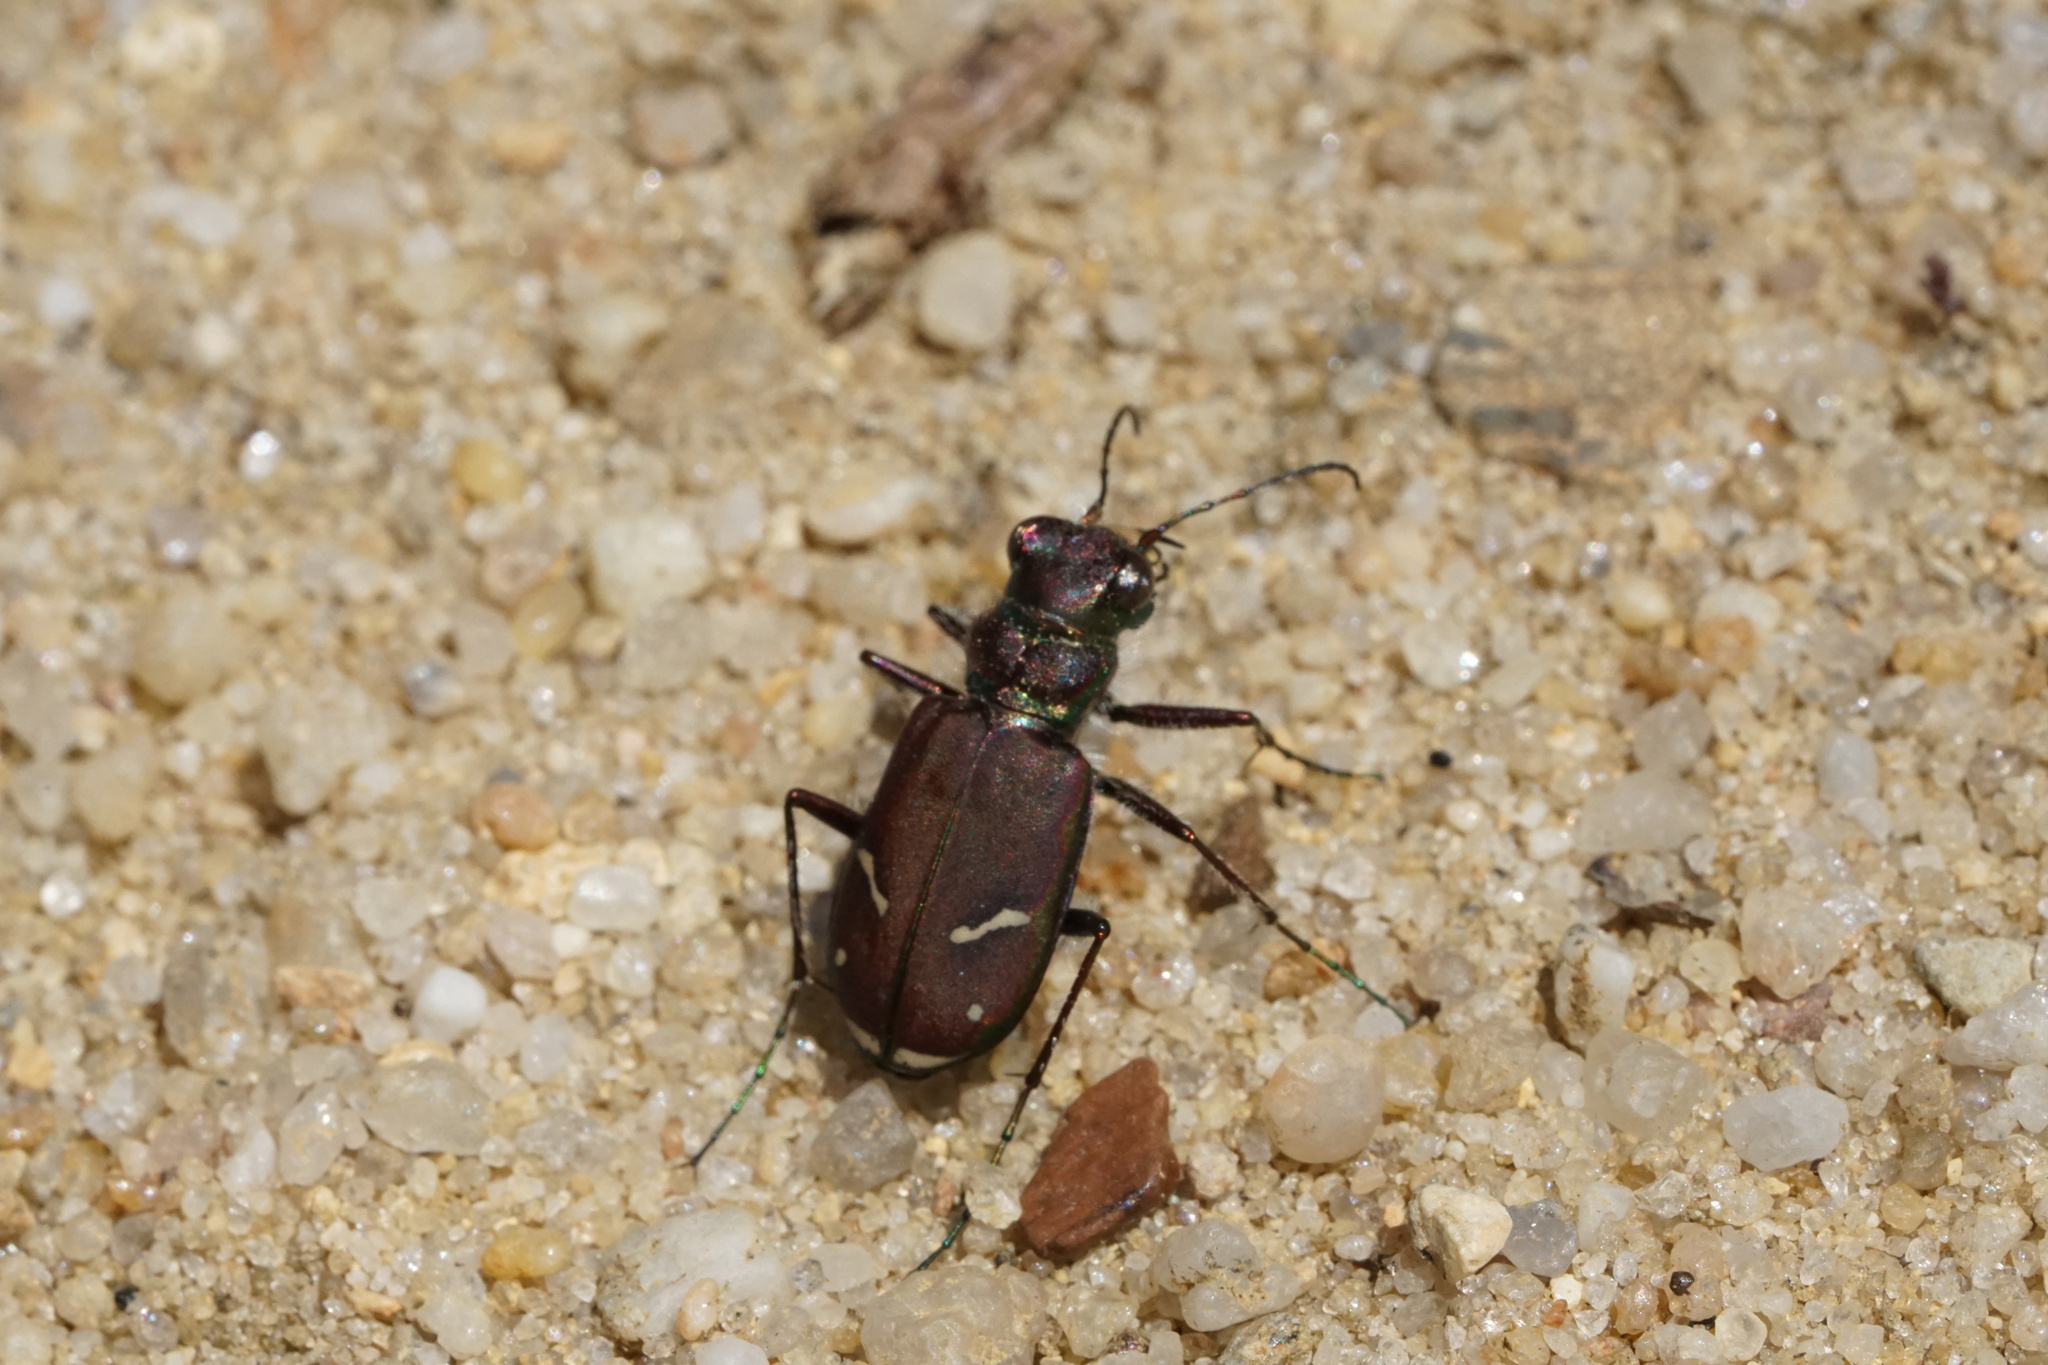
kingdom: Animalia
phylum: Arthropoda
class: Insecta
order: Coleoptera
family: Carabidae
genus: Cicindela
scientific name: Cicindela purpurea
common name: Cow path tiger beetle
